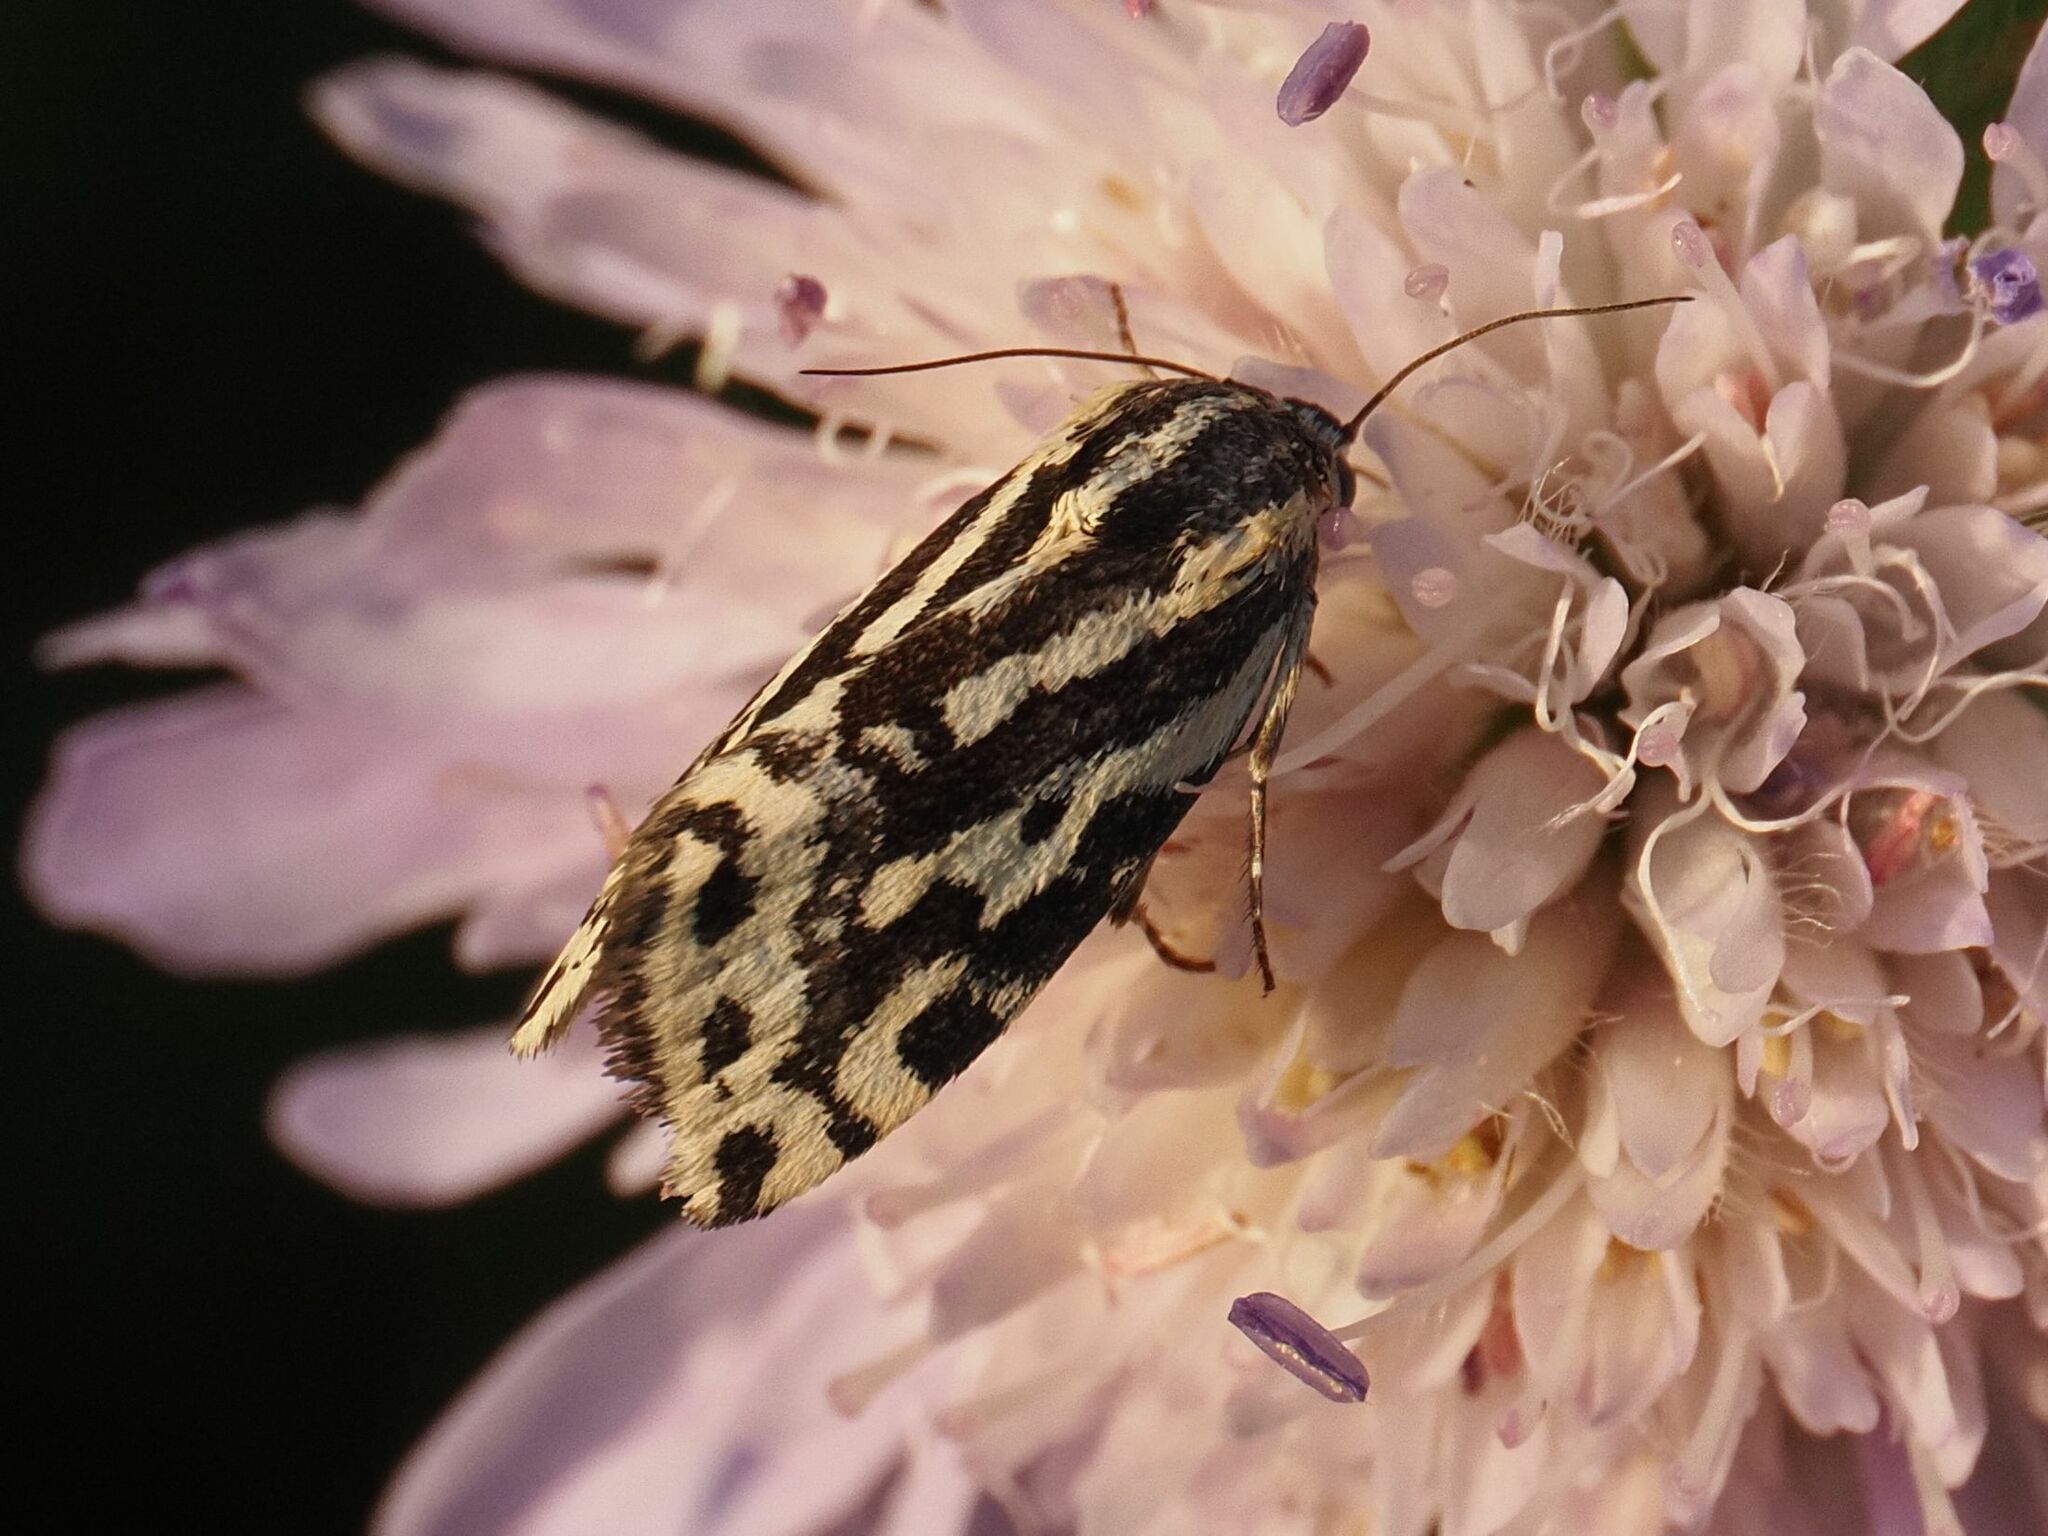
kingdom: Animalia
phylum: Arthropoda
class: Insecta
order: Lepidoptera
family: Noctuidae
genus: Acontia
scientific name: Acontia trabealis
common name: Spotted sulphur
